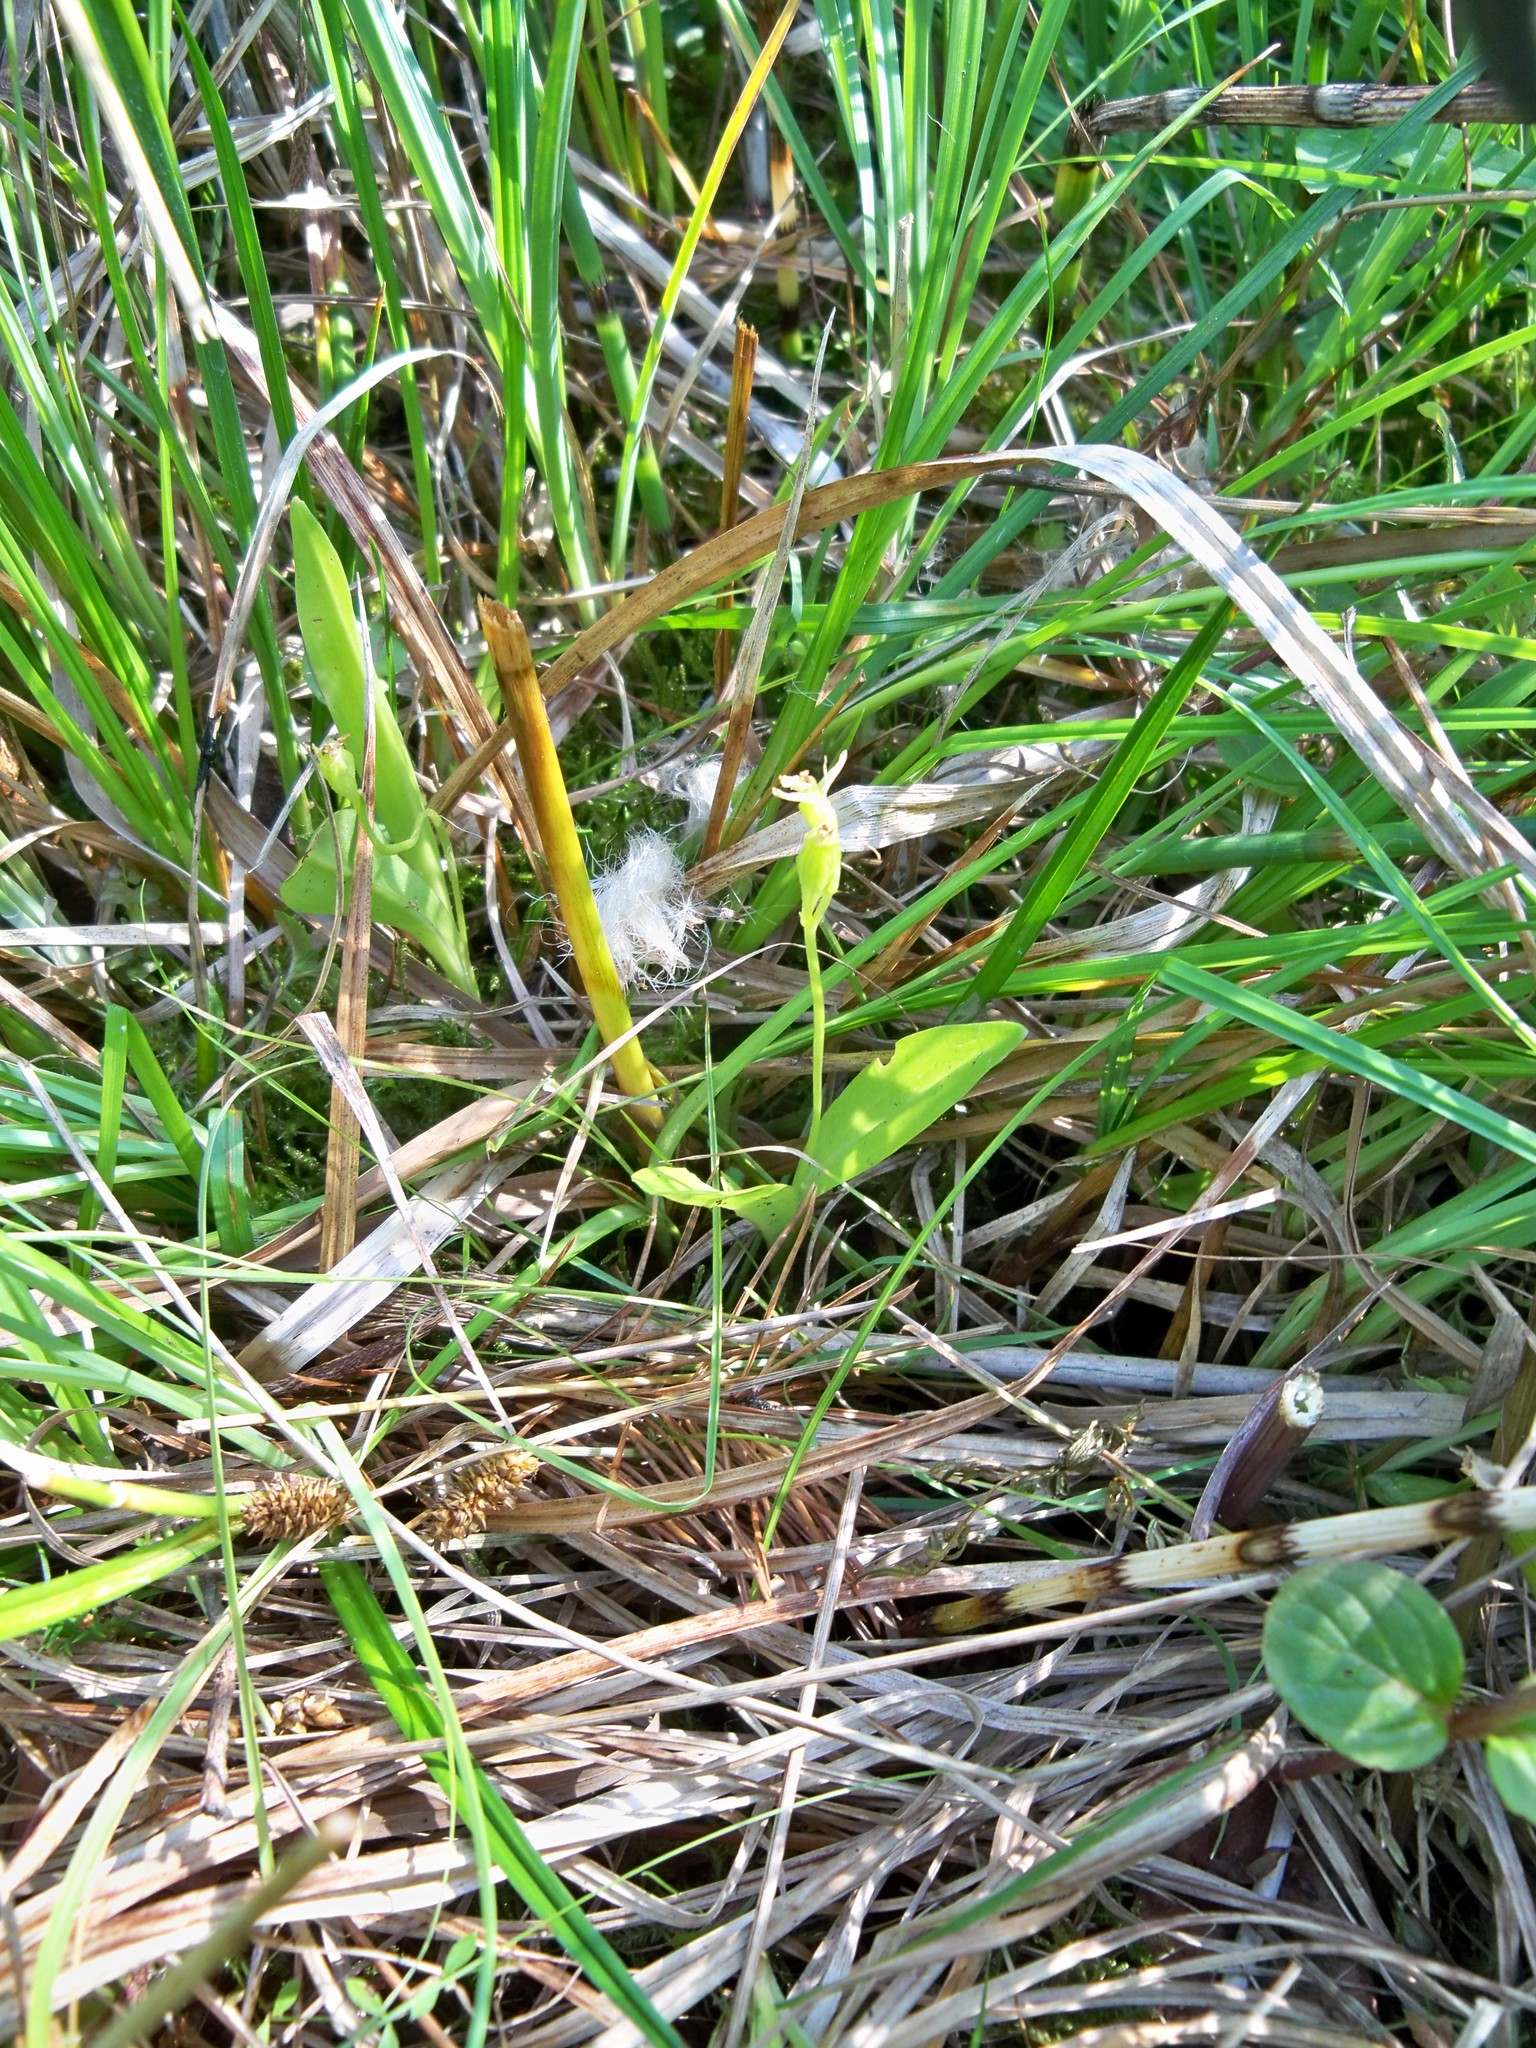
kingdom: Animalia
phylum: Arthropoda
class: Insecta
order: Coleoptera
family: Curculionidae
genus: Liparis
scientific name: Liparis loeselii
